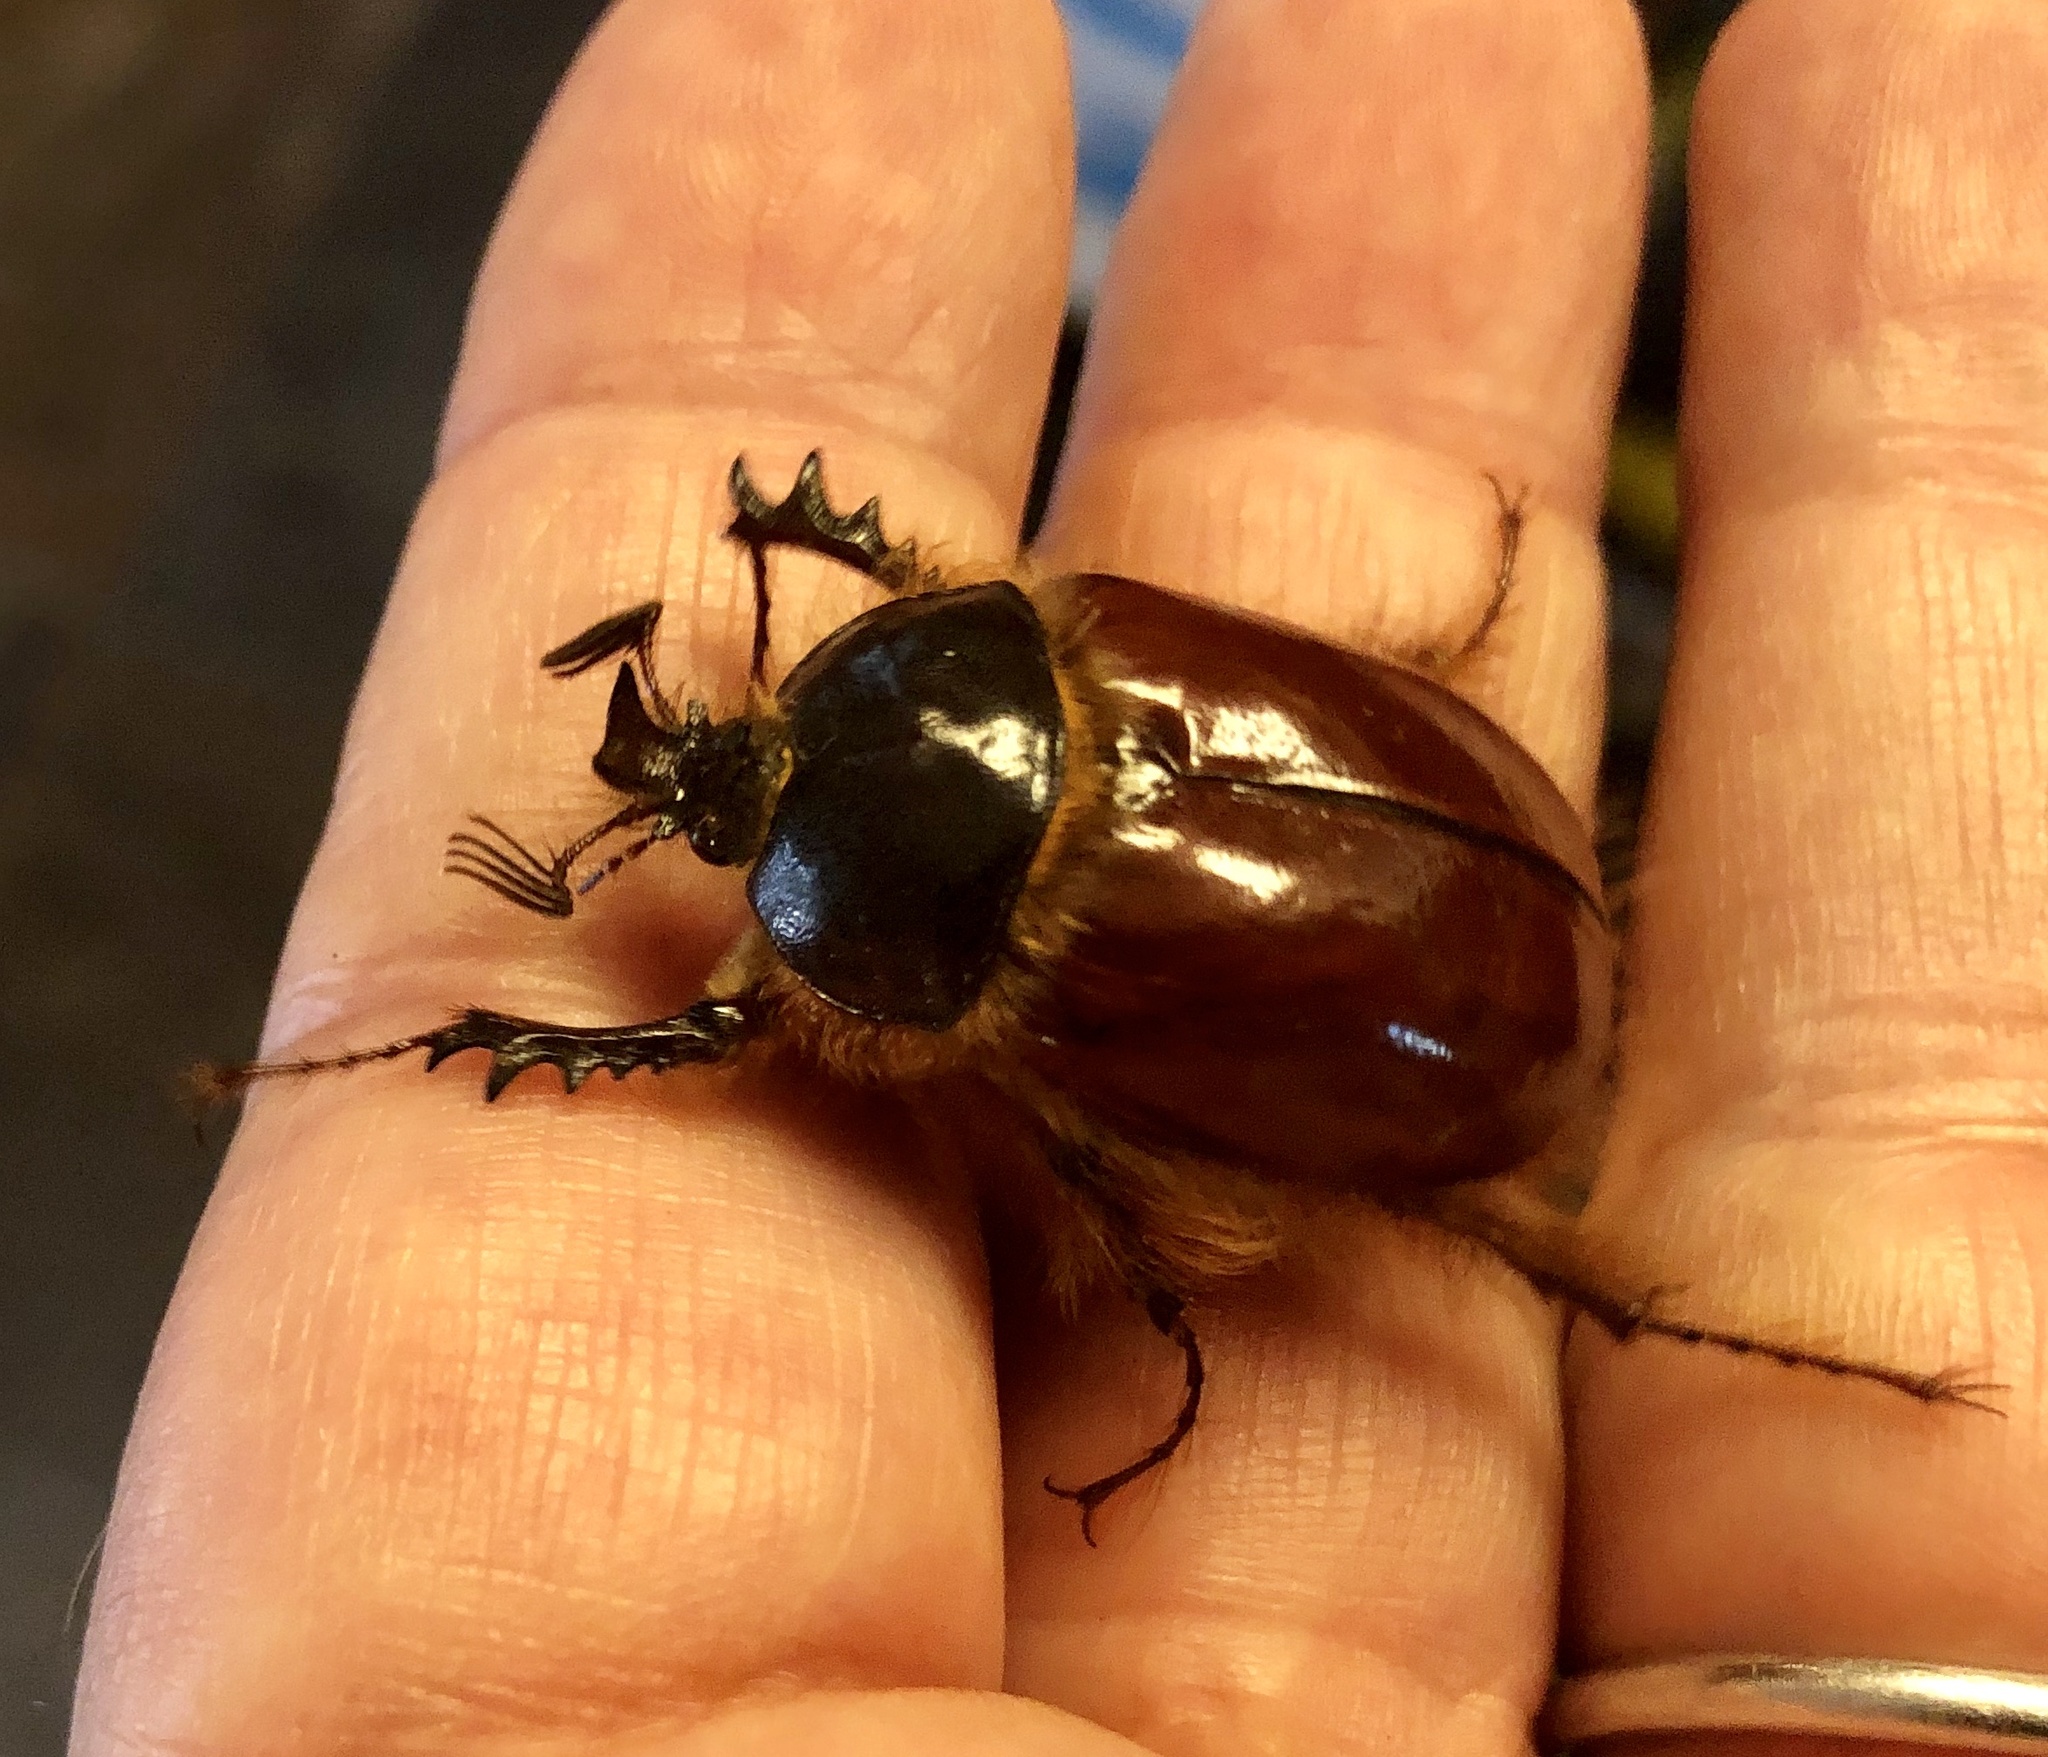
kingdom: Animalia
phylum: Arthropoda
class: Insecta
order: Coleoptera
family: Pleocomidae
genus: Pleocoma
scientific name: Pleocoma bicolor
